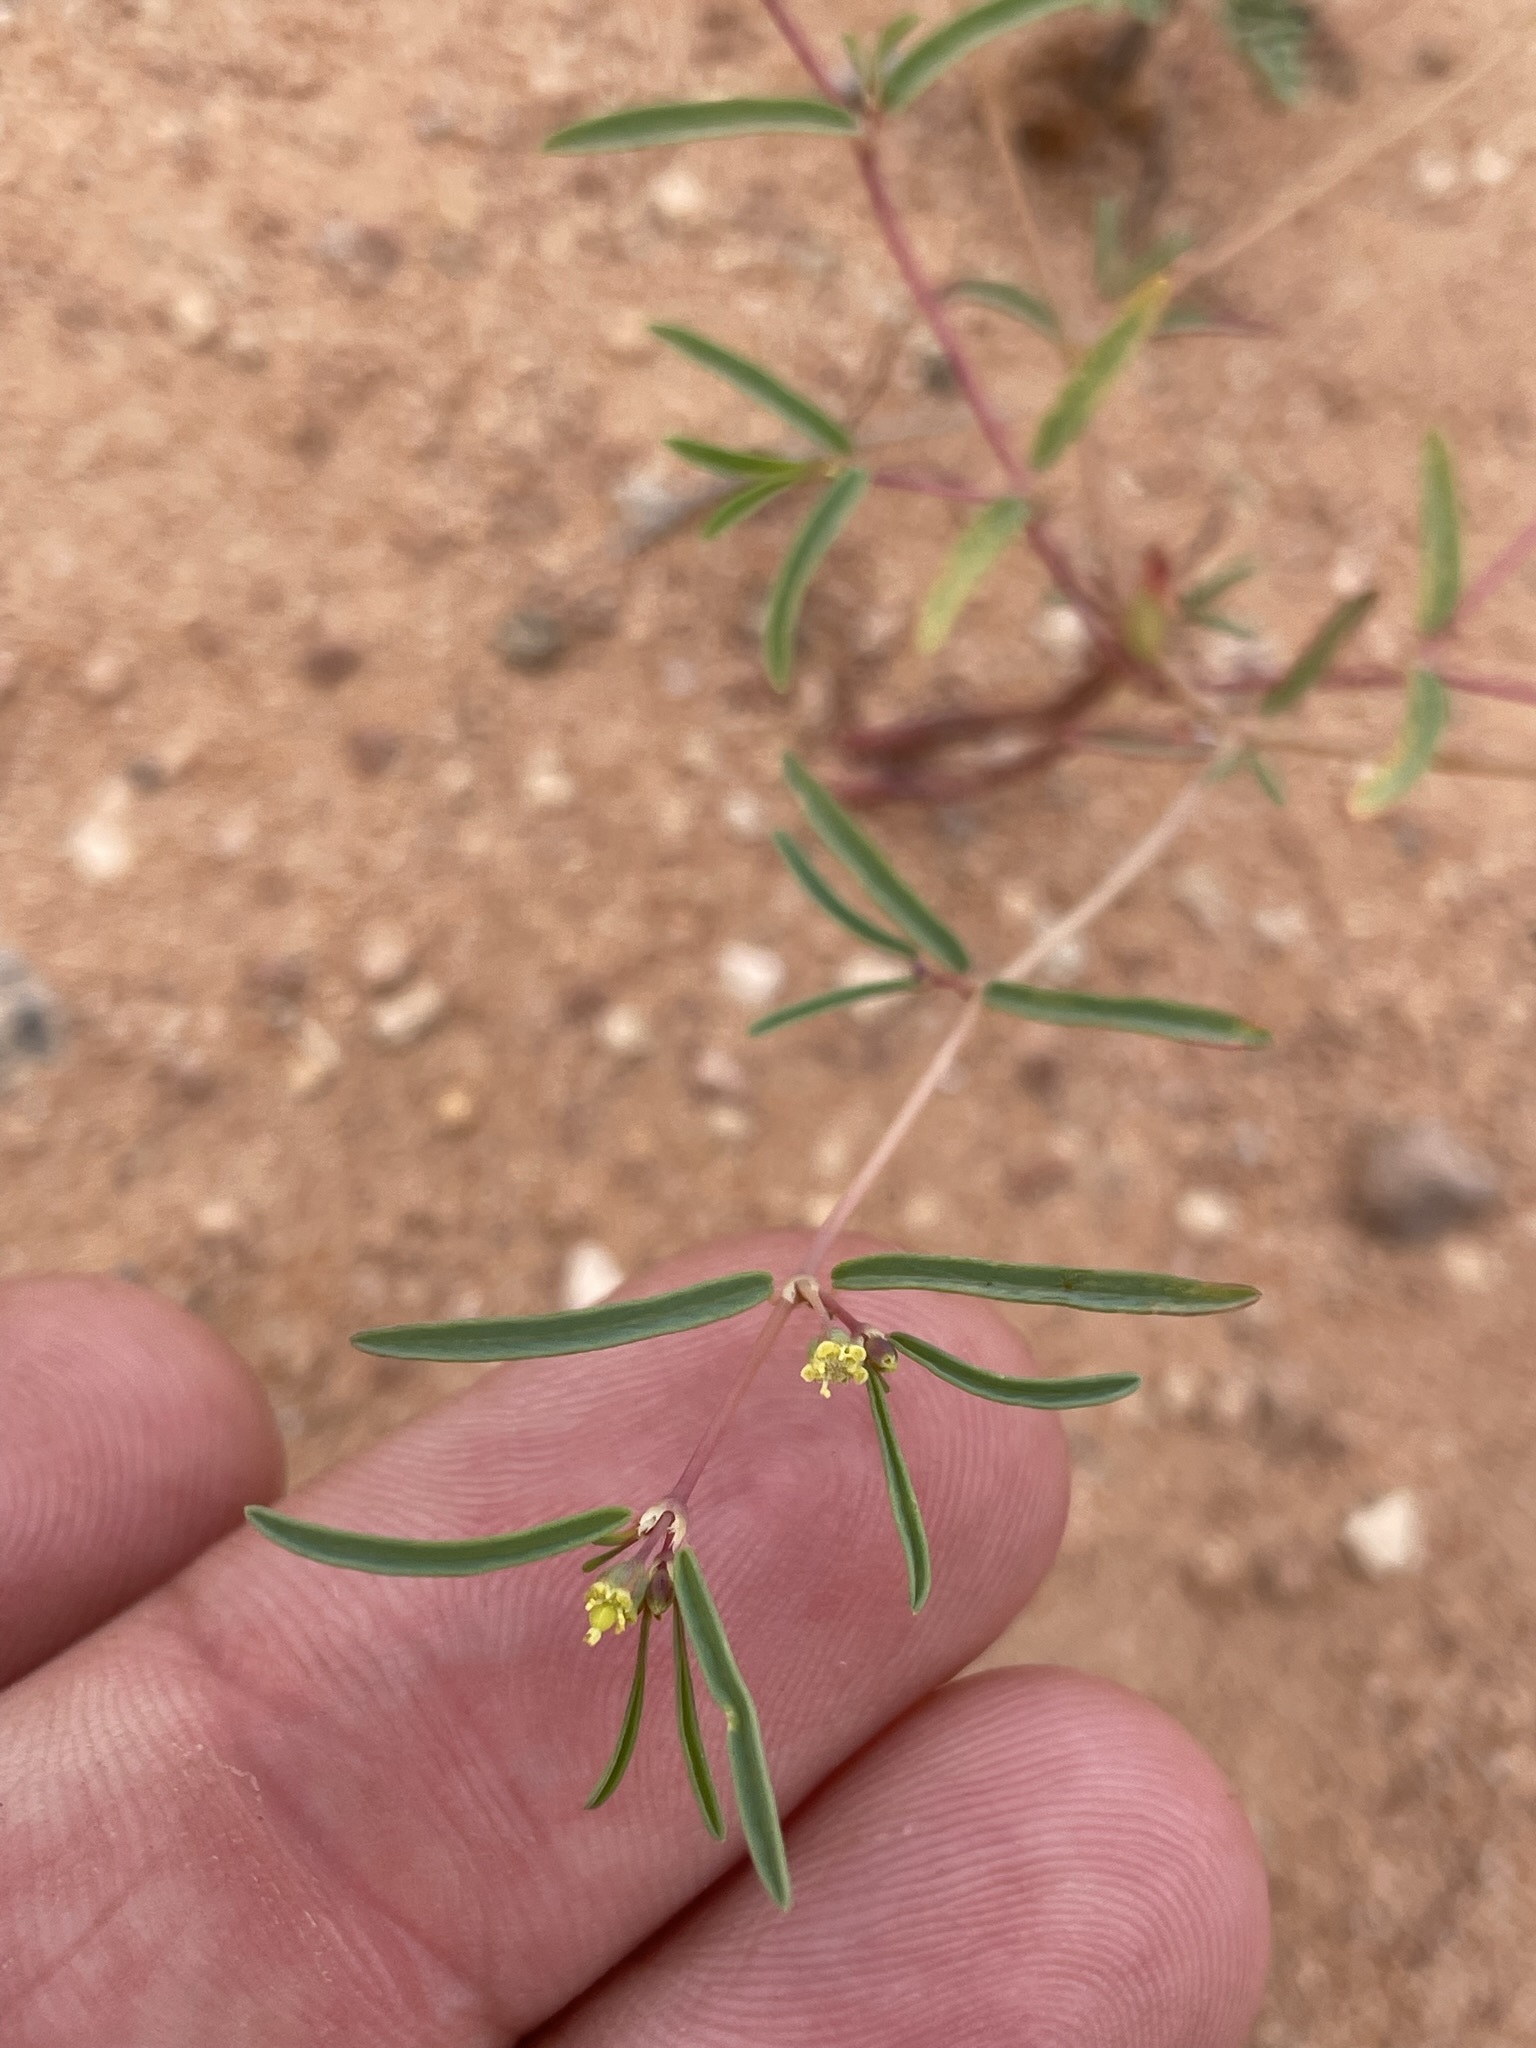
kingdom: Plantae
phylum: Tracheophyta
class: Magnoliopsida
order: Malpighiales
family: Euphorbiaceae
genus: Euphorbia
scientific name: Euphorbia parryi
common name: Dune spurge
